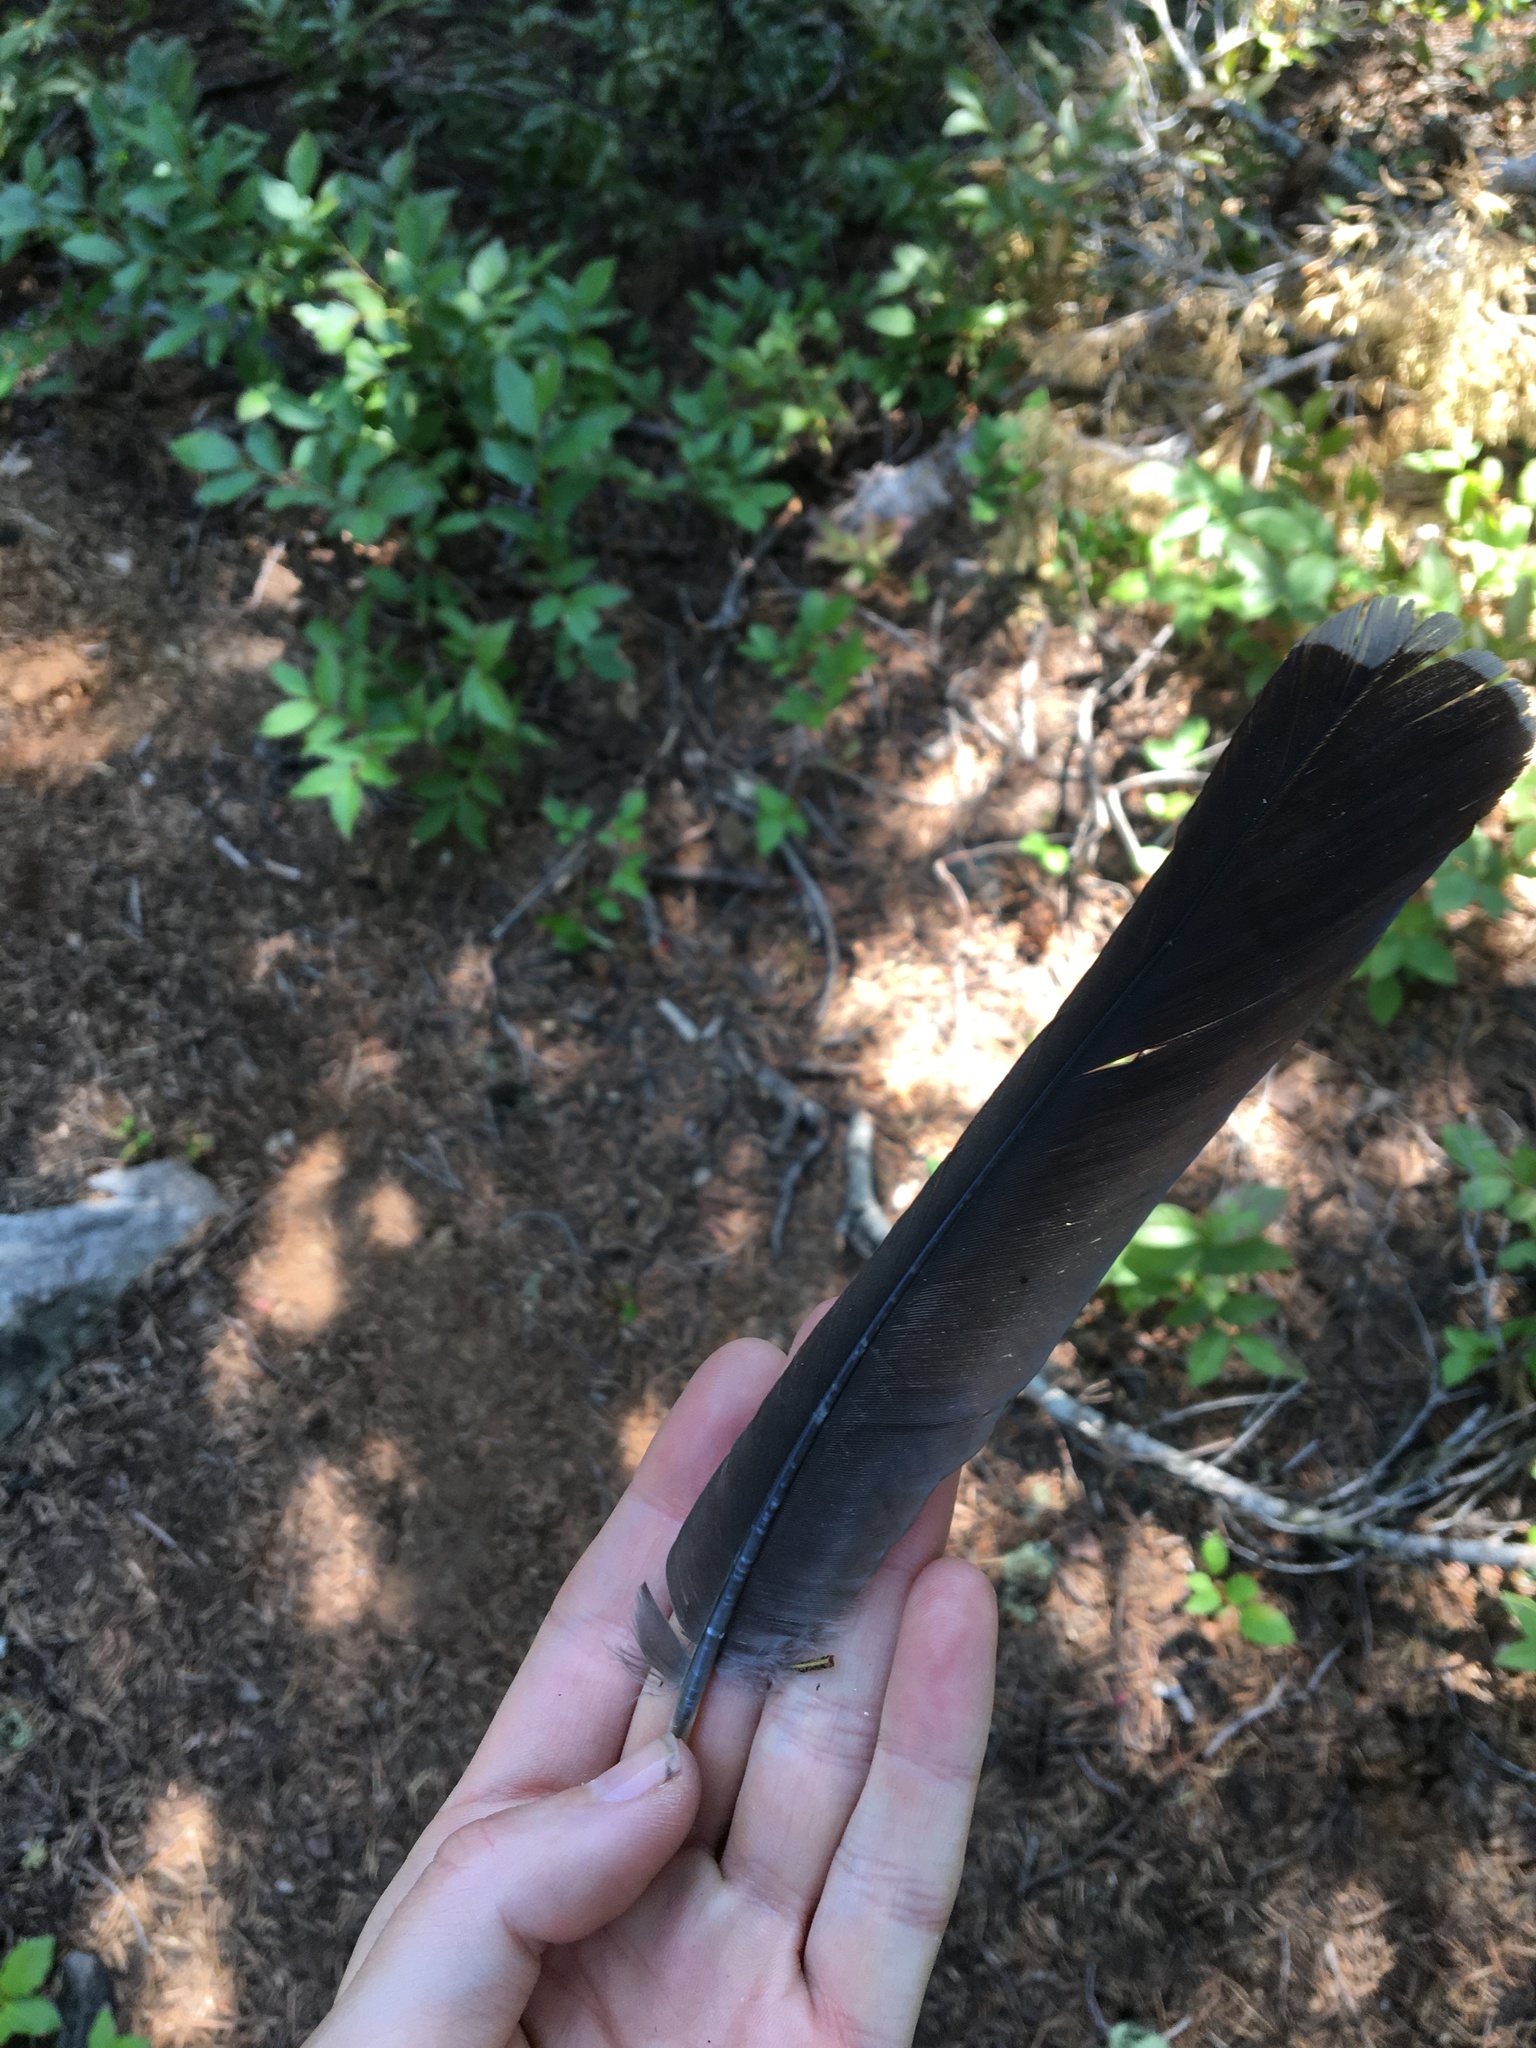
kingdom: Animalia
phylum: Chordata
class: Aves
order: Galliformes
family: Phasianidae
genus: Dendragapus
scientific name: Dendragapus fuliginosus
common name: Sooty grouse
